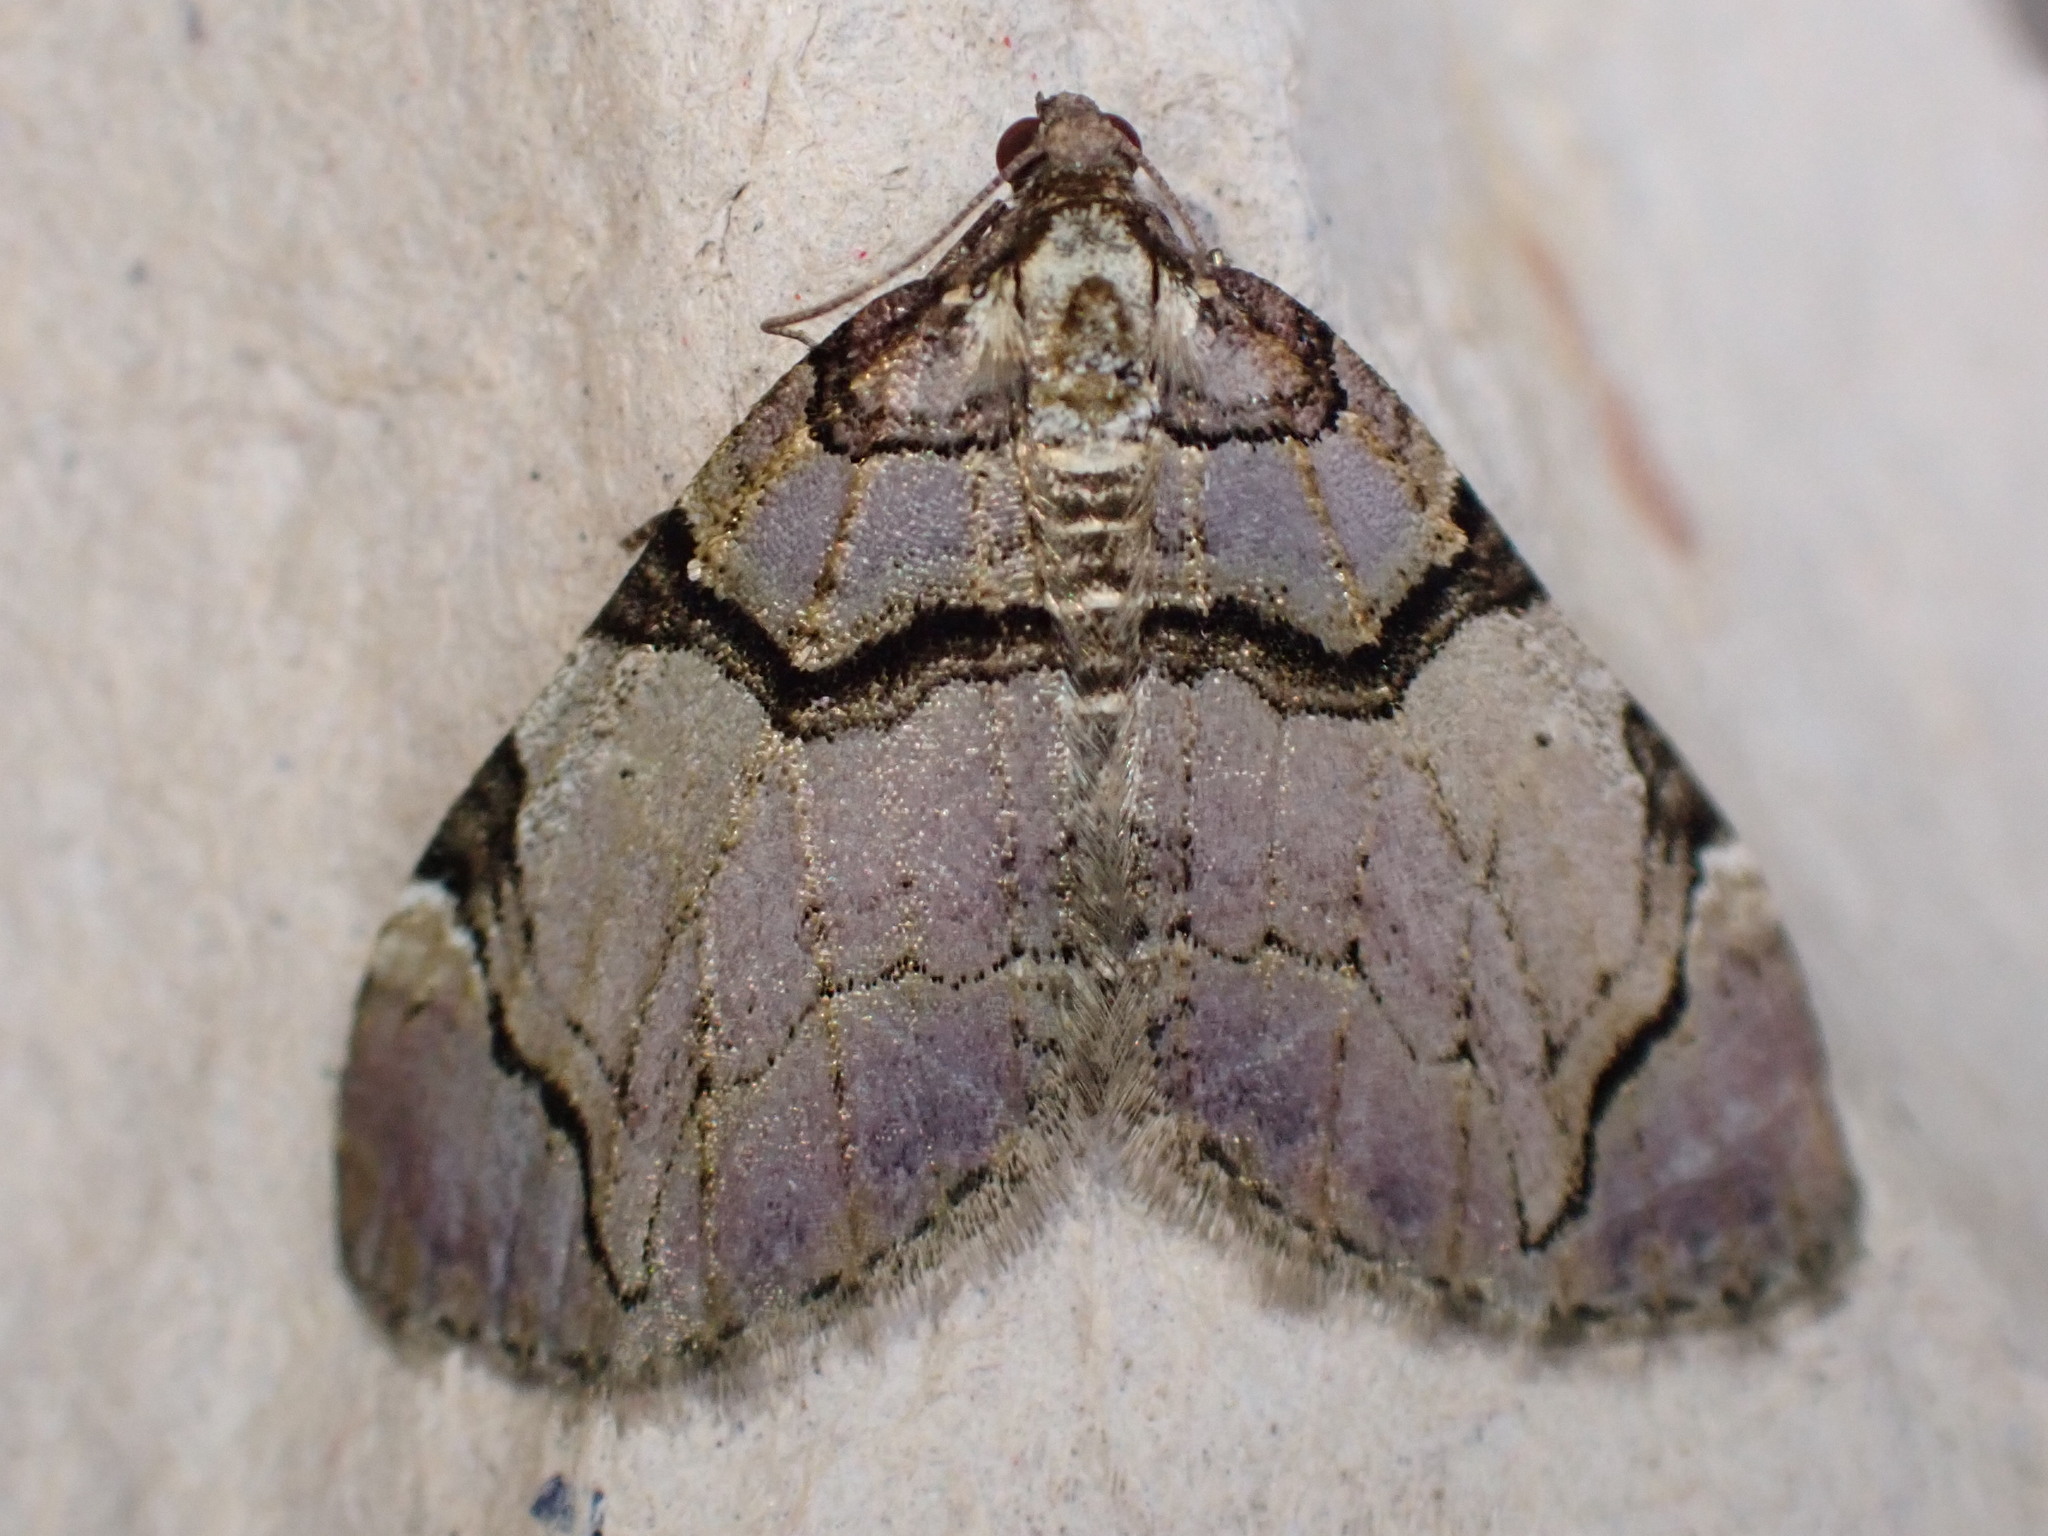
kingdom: Animalia
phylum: Arthropoda
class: Insecta
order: Lepidoptera
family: Geometridae
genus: Anticlea
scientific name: Anticlea derivata
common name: Streamer
